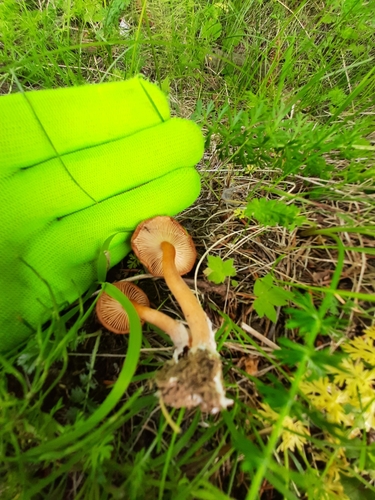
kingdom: Fungi
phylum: Basidiomycota
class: Agaricomycetes
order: Agaricales
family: Tricholomataceae
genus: Clitocybe
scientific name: Clitocybe
